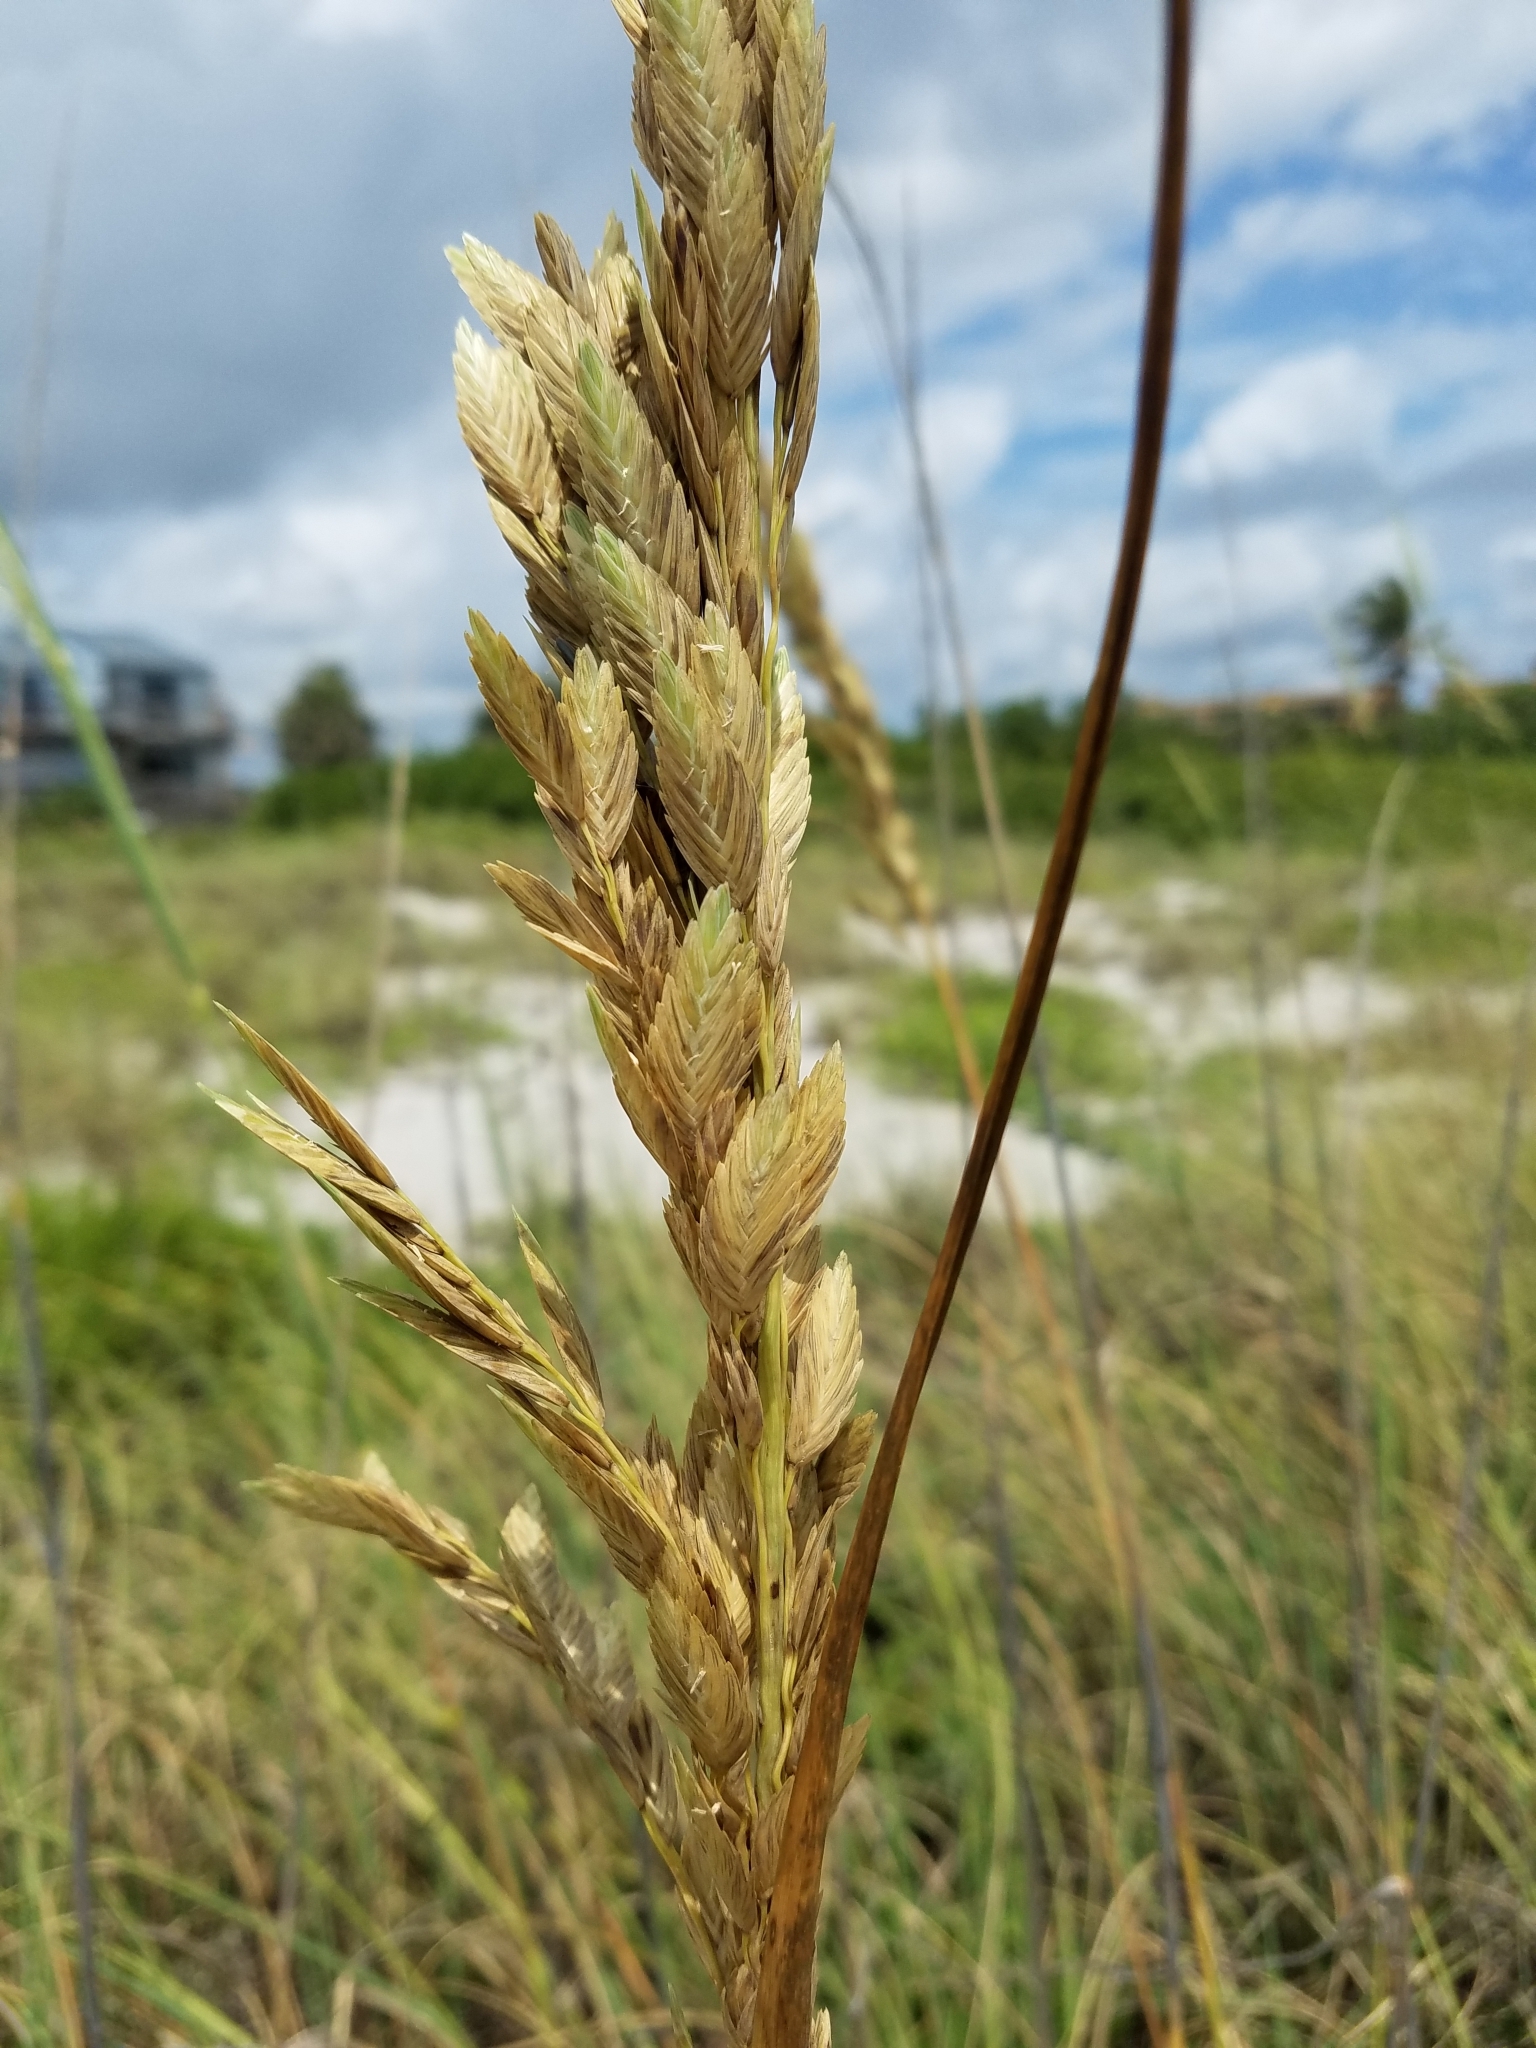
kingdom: Plantae
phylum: Tracheophyta
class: Liliopsida
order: Poales
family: Poaceae
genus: Uniola
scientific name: Uniola paniculata
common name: Seaside-oats
